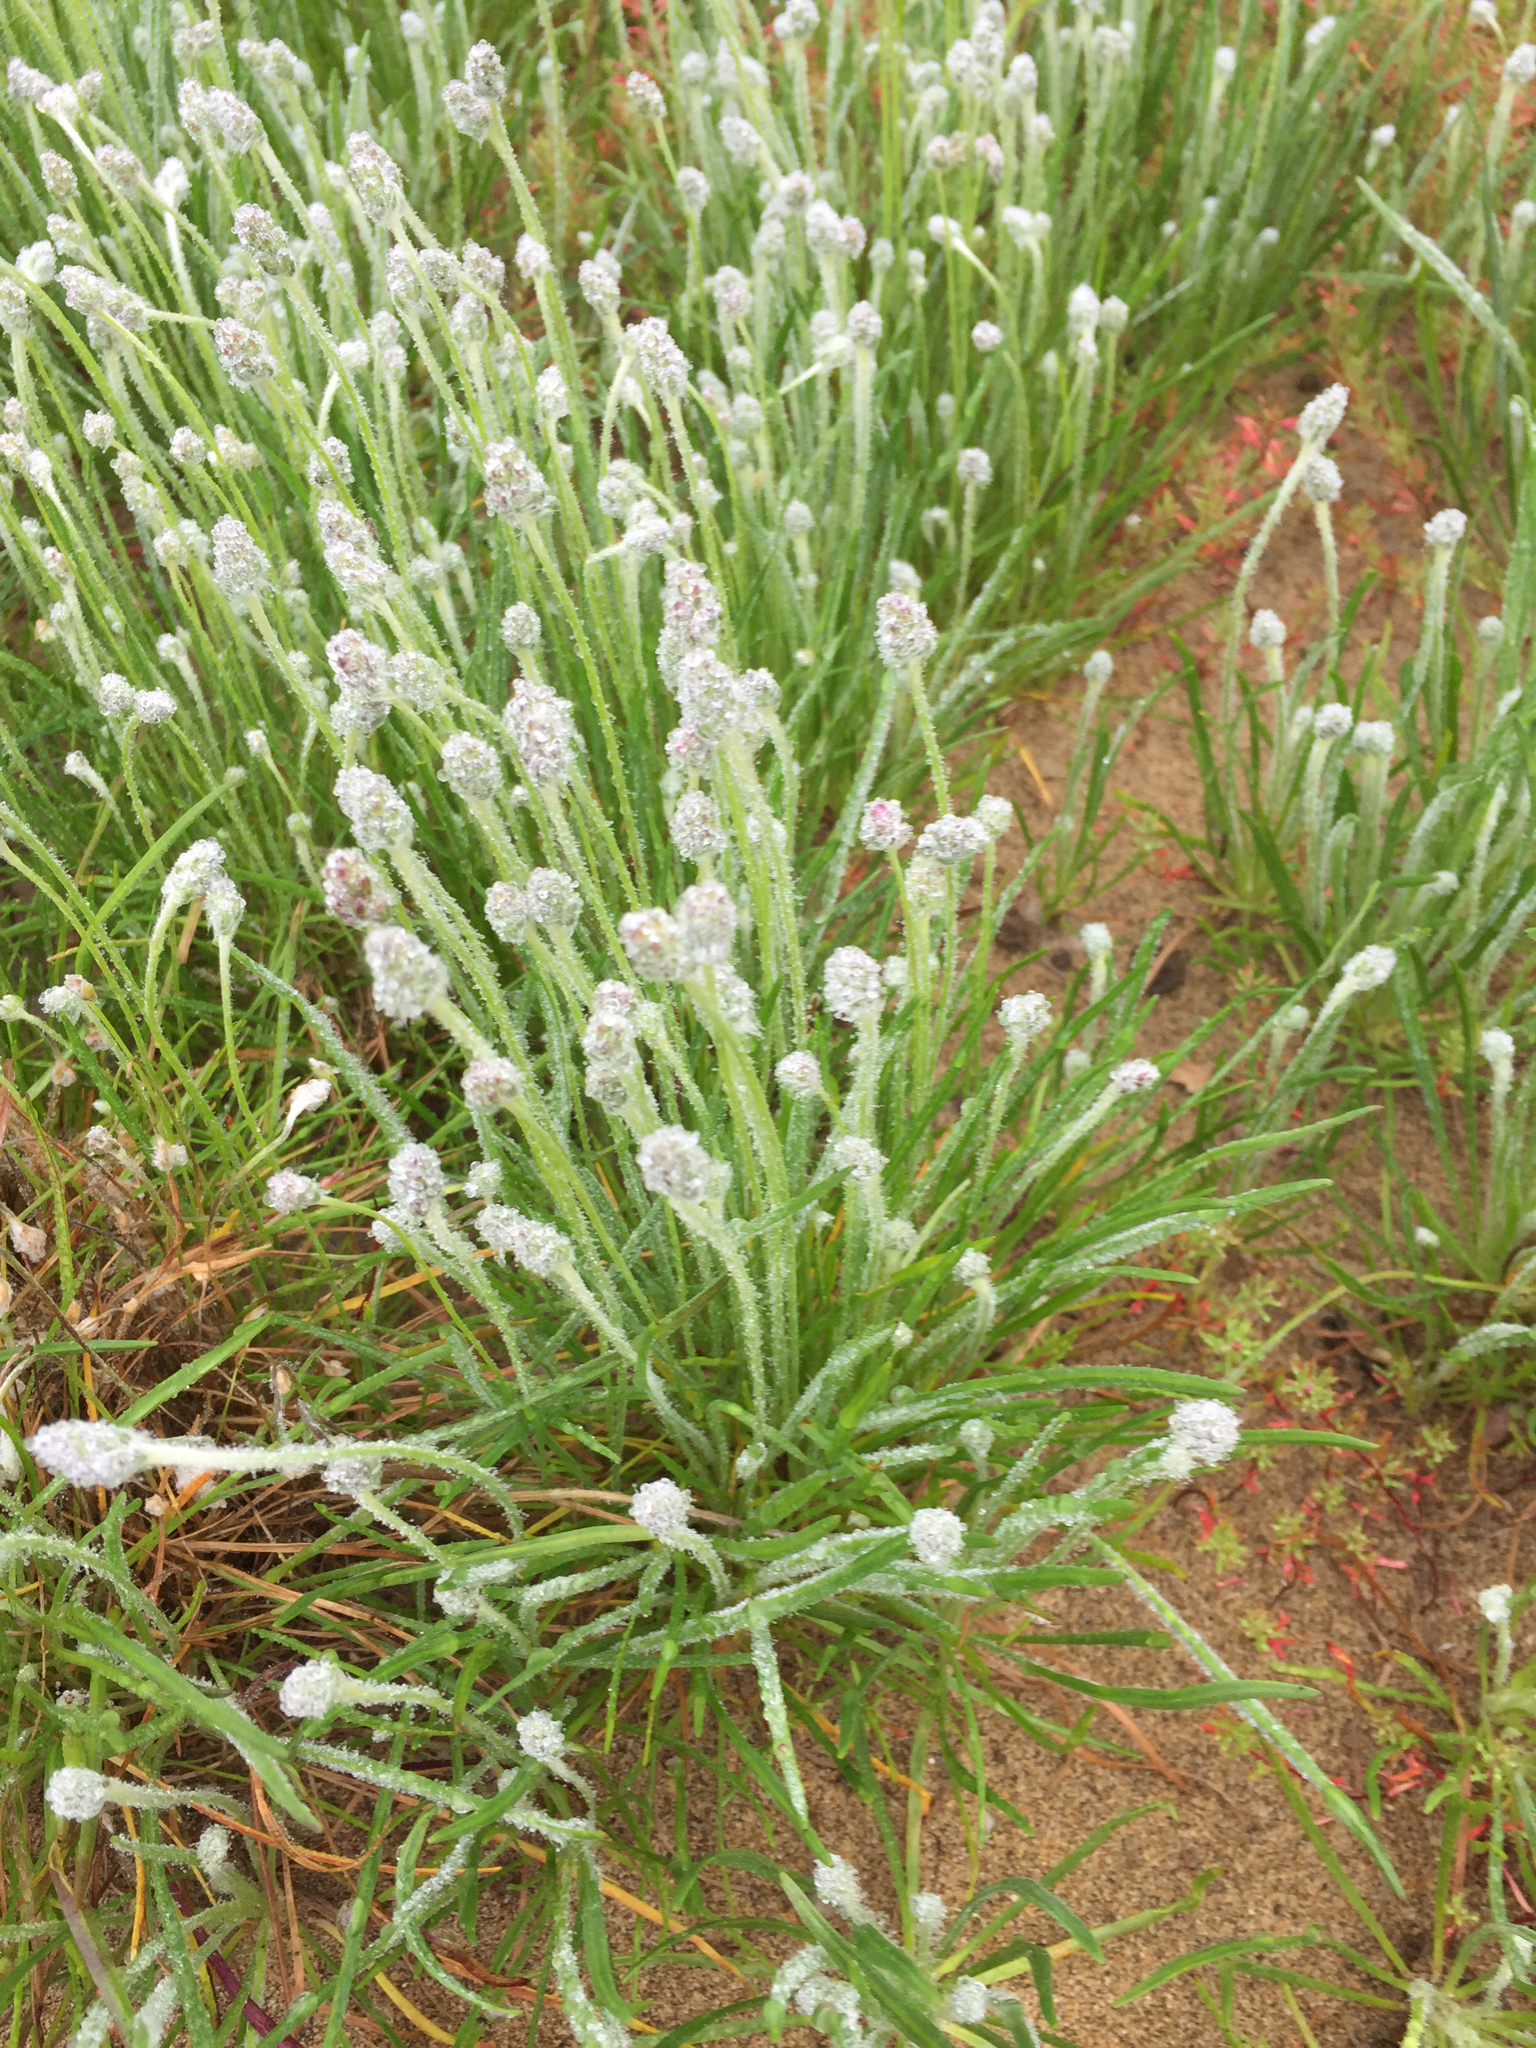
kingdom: Plantae
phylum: Tracheophyta
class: Magnoliopsida
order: Lamiales
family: Plantaginaceae
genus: Plantago
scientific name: Plantago erecta
